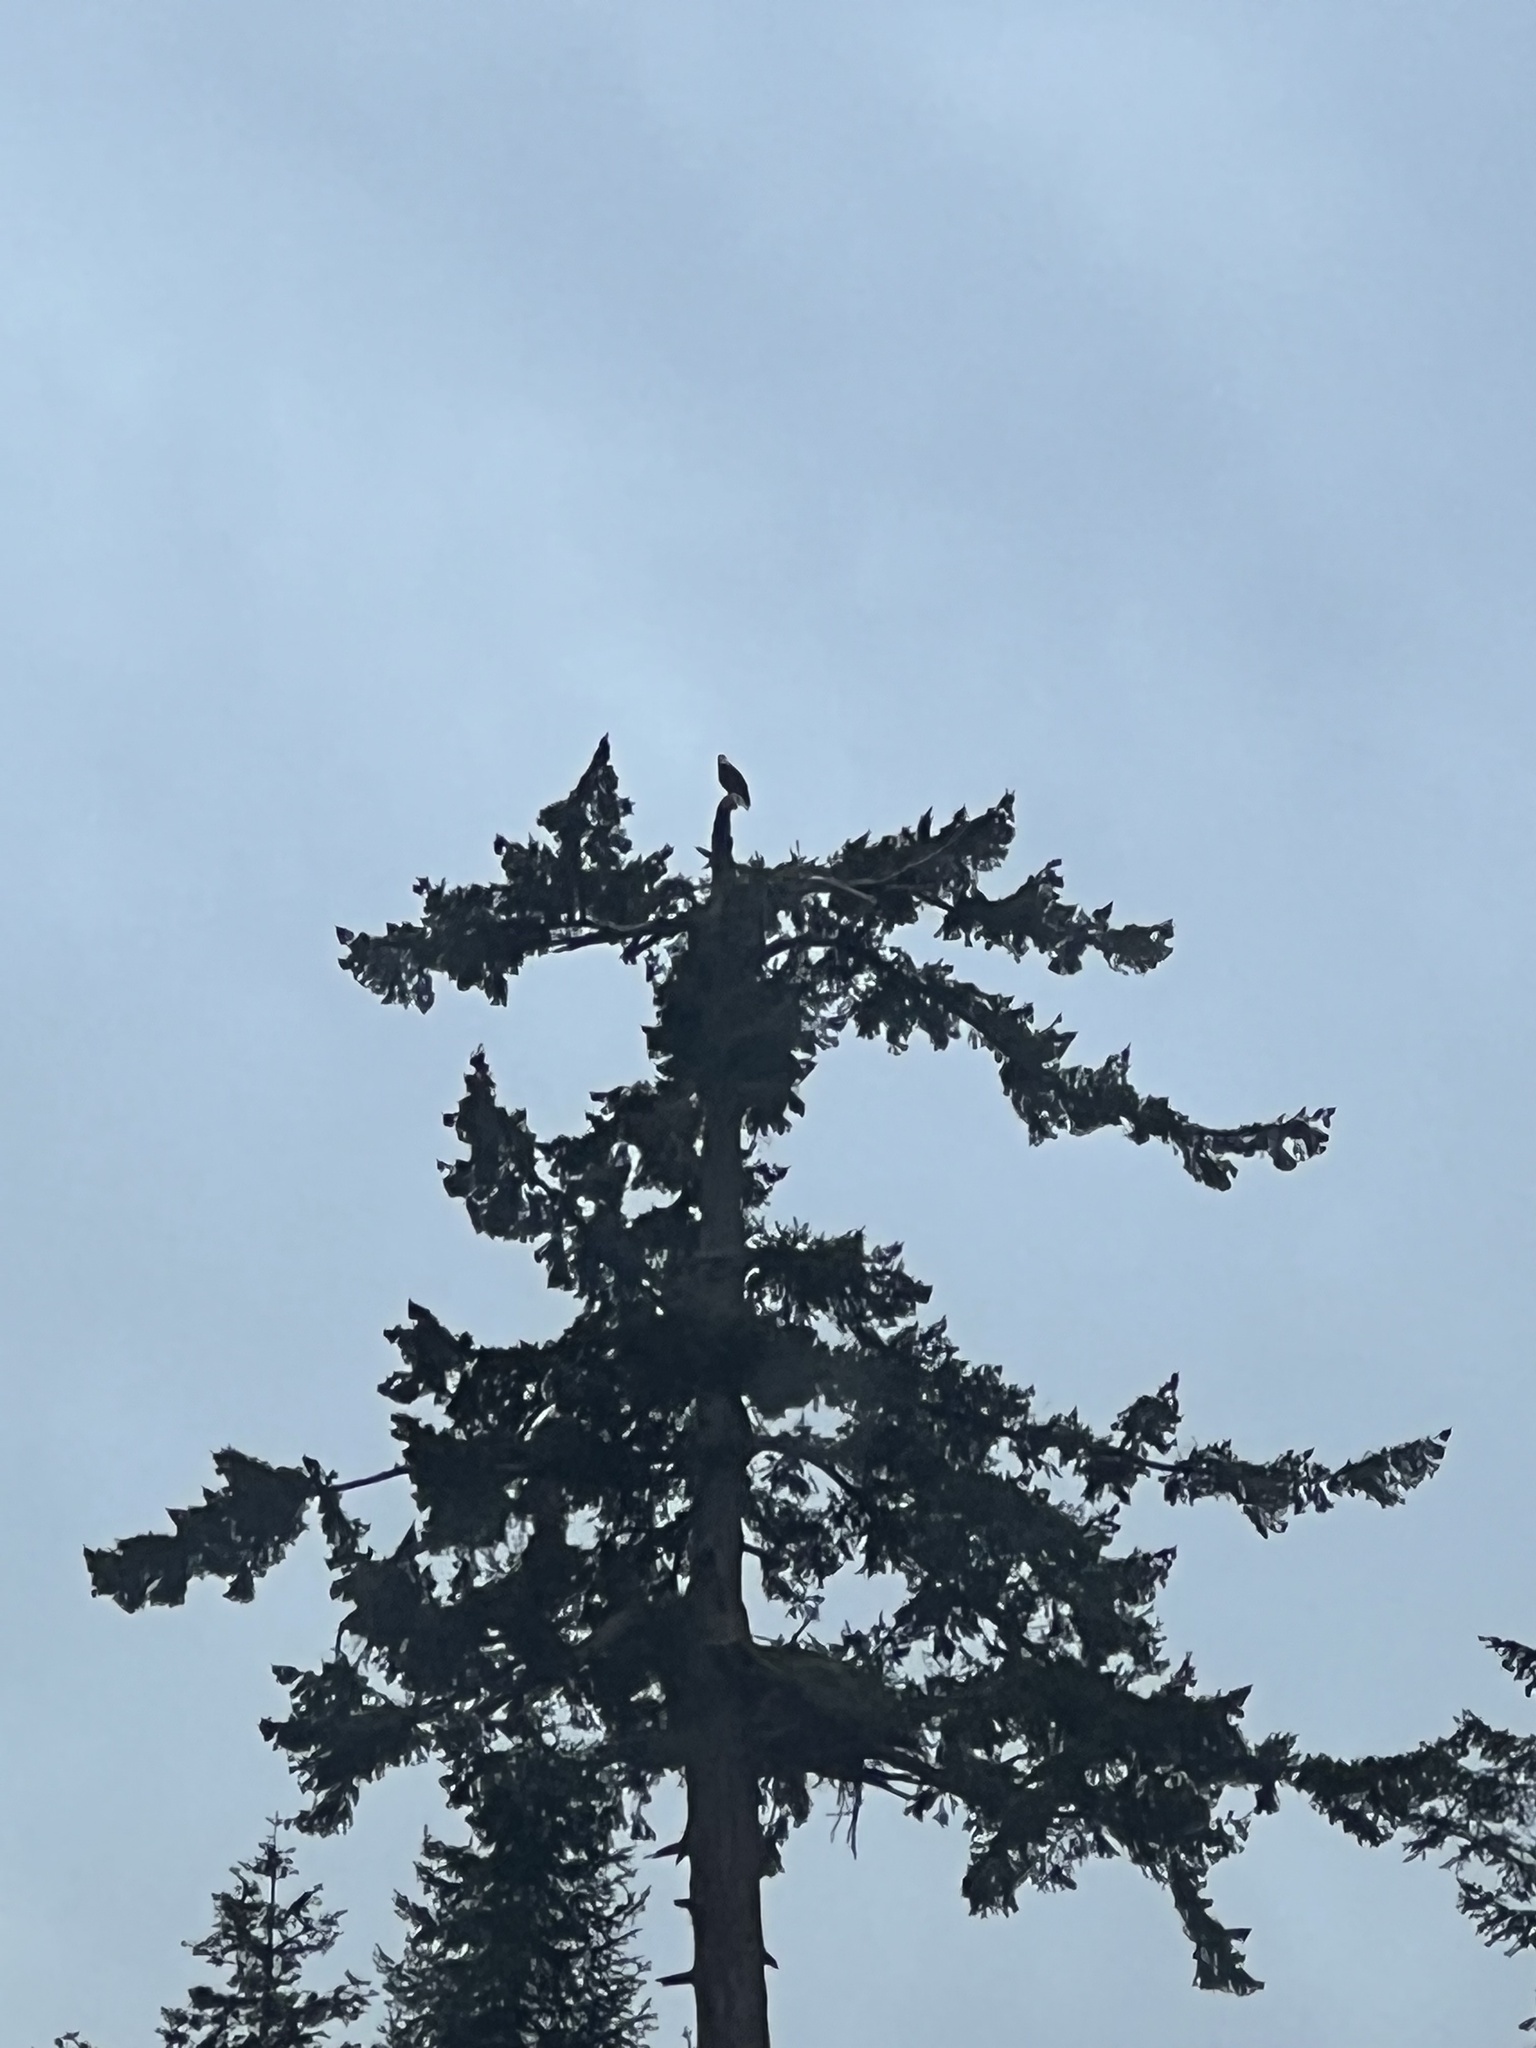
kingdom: Animalia
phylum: Chordata
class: Aves
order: Accipitriformes
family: Accipitridae
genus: Haliaeetus
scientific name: Haliaeetus leucocephalus
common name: Bald eagle
